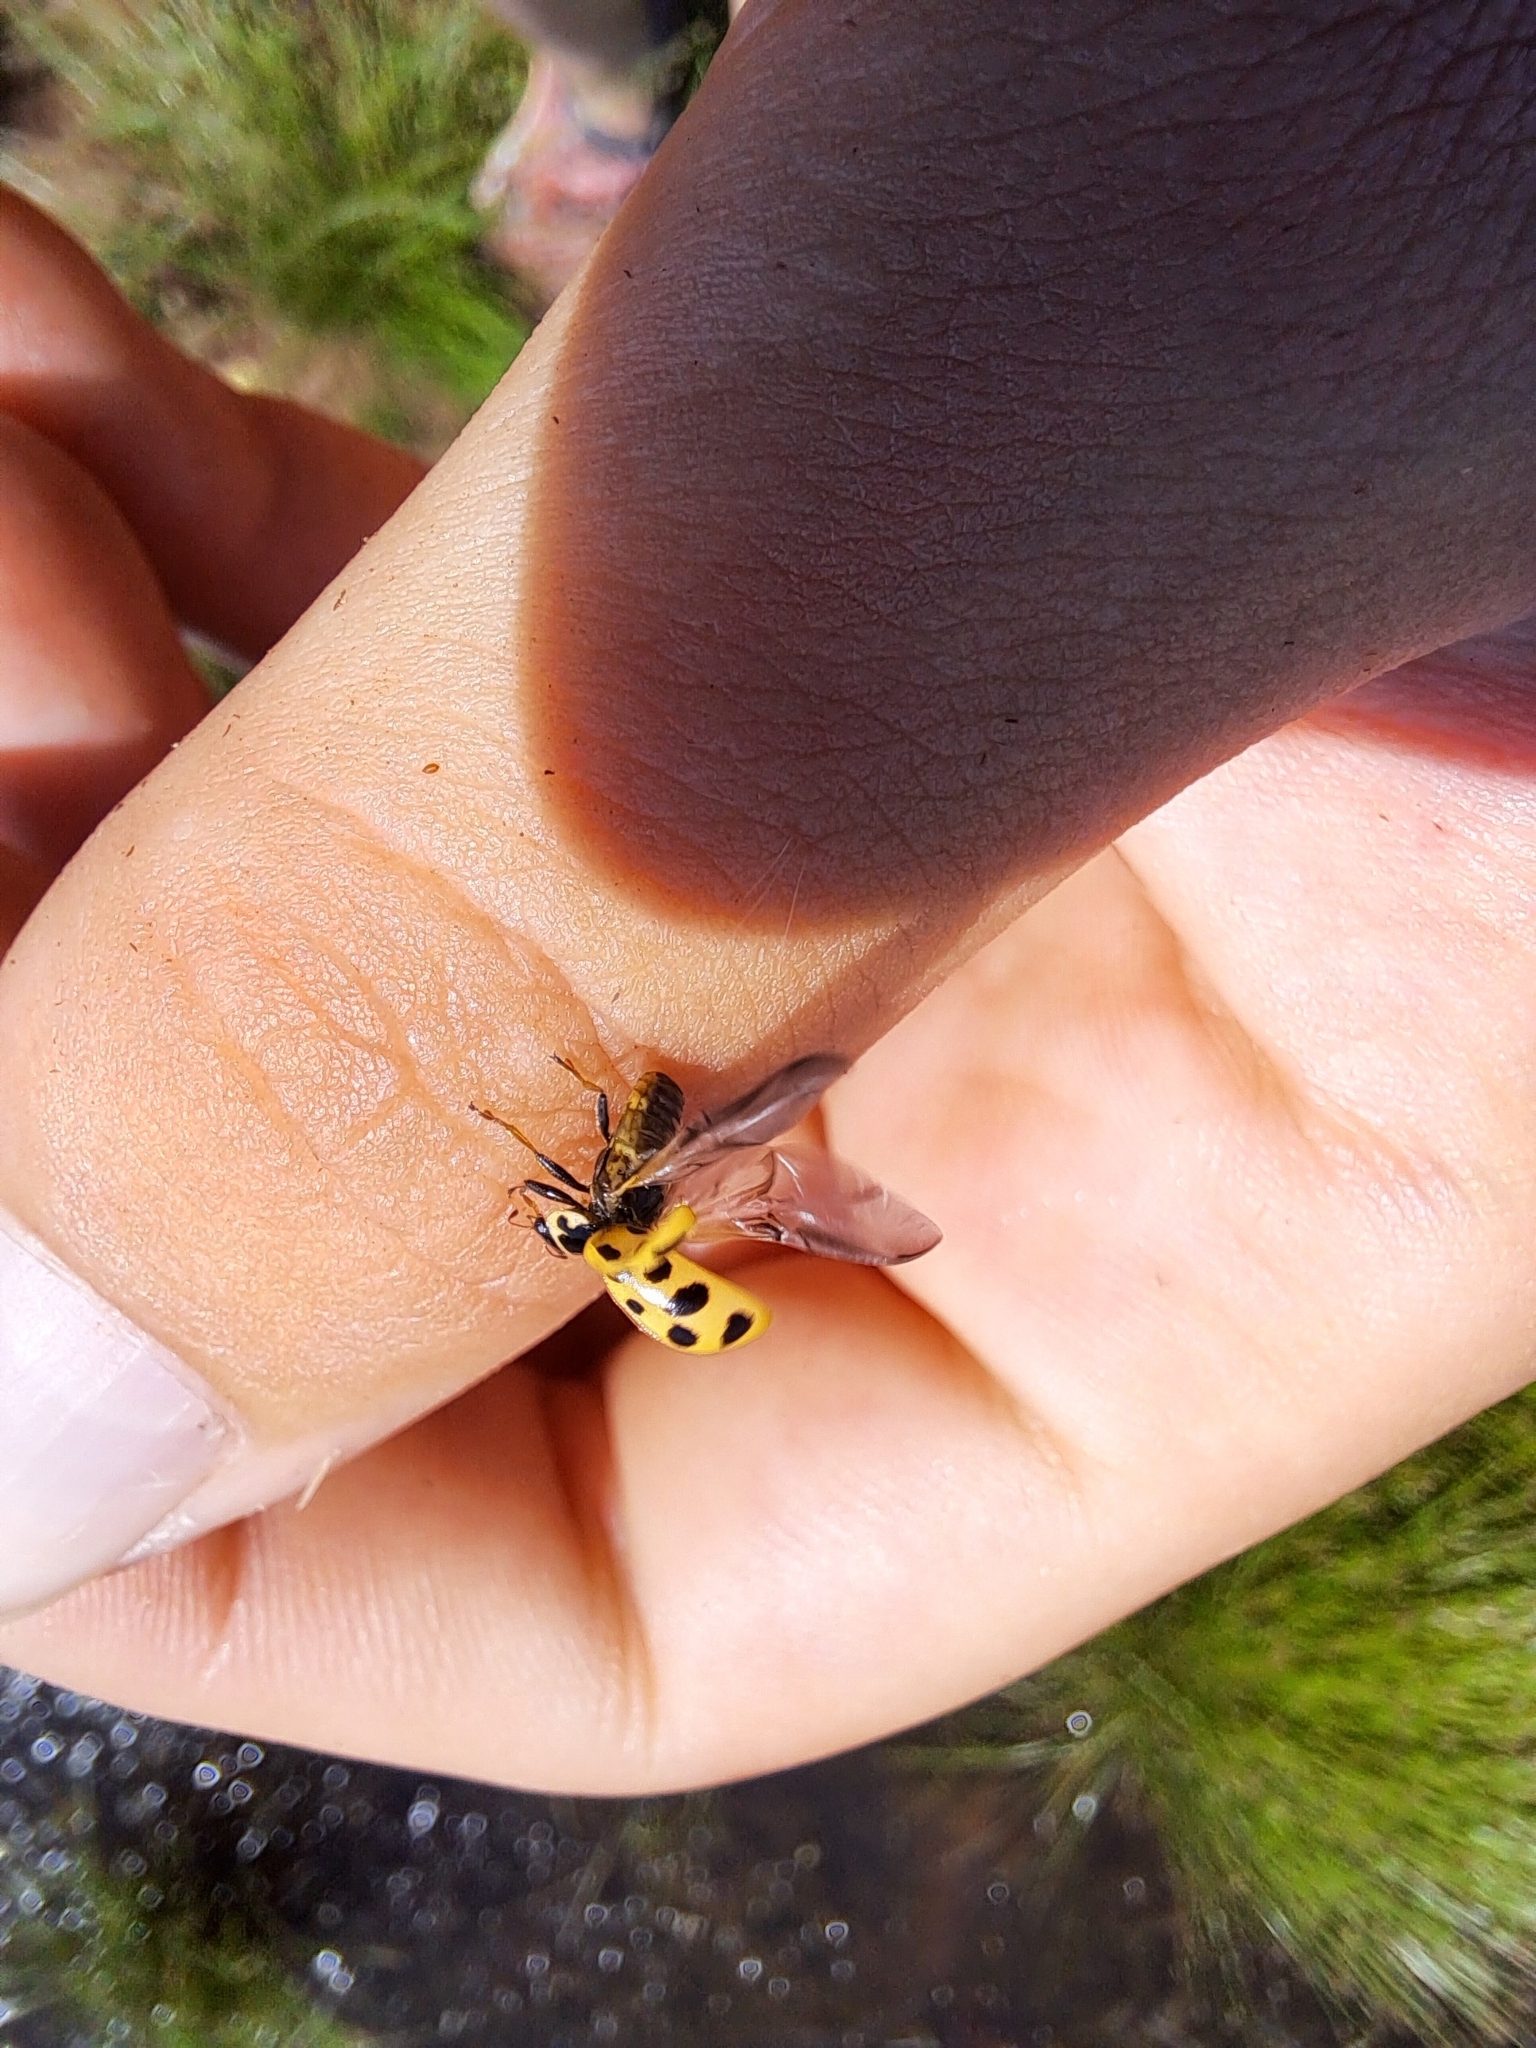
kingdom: Animalia
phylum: Arthropoda
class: Insecta
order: Coleoptera
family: Coccinellidae
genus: Hippodamia
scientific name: Hippodamia tredecimpunctata
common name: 13-spot ladybird
